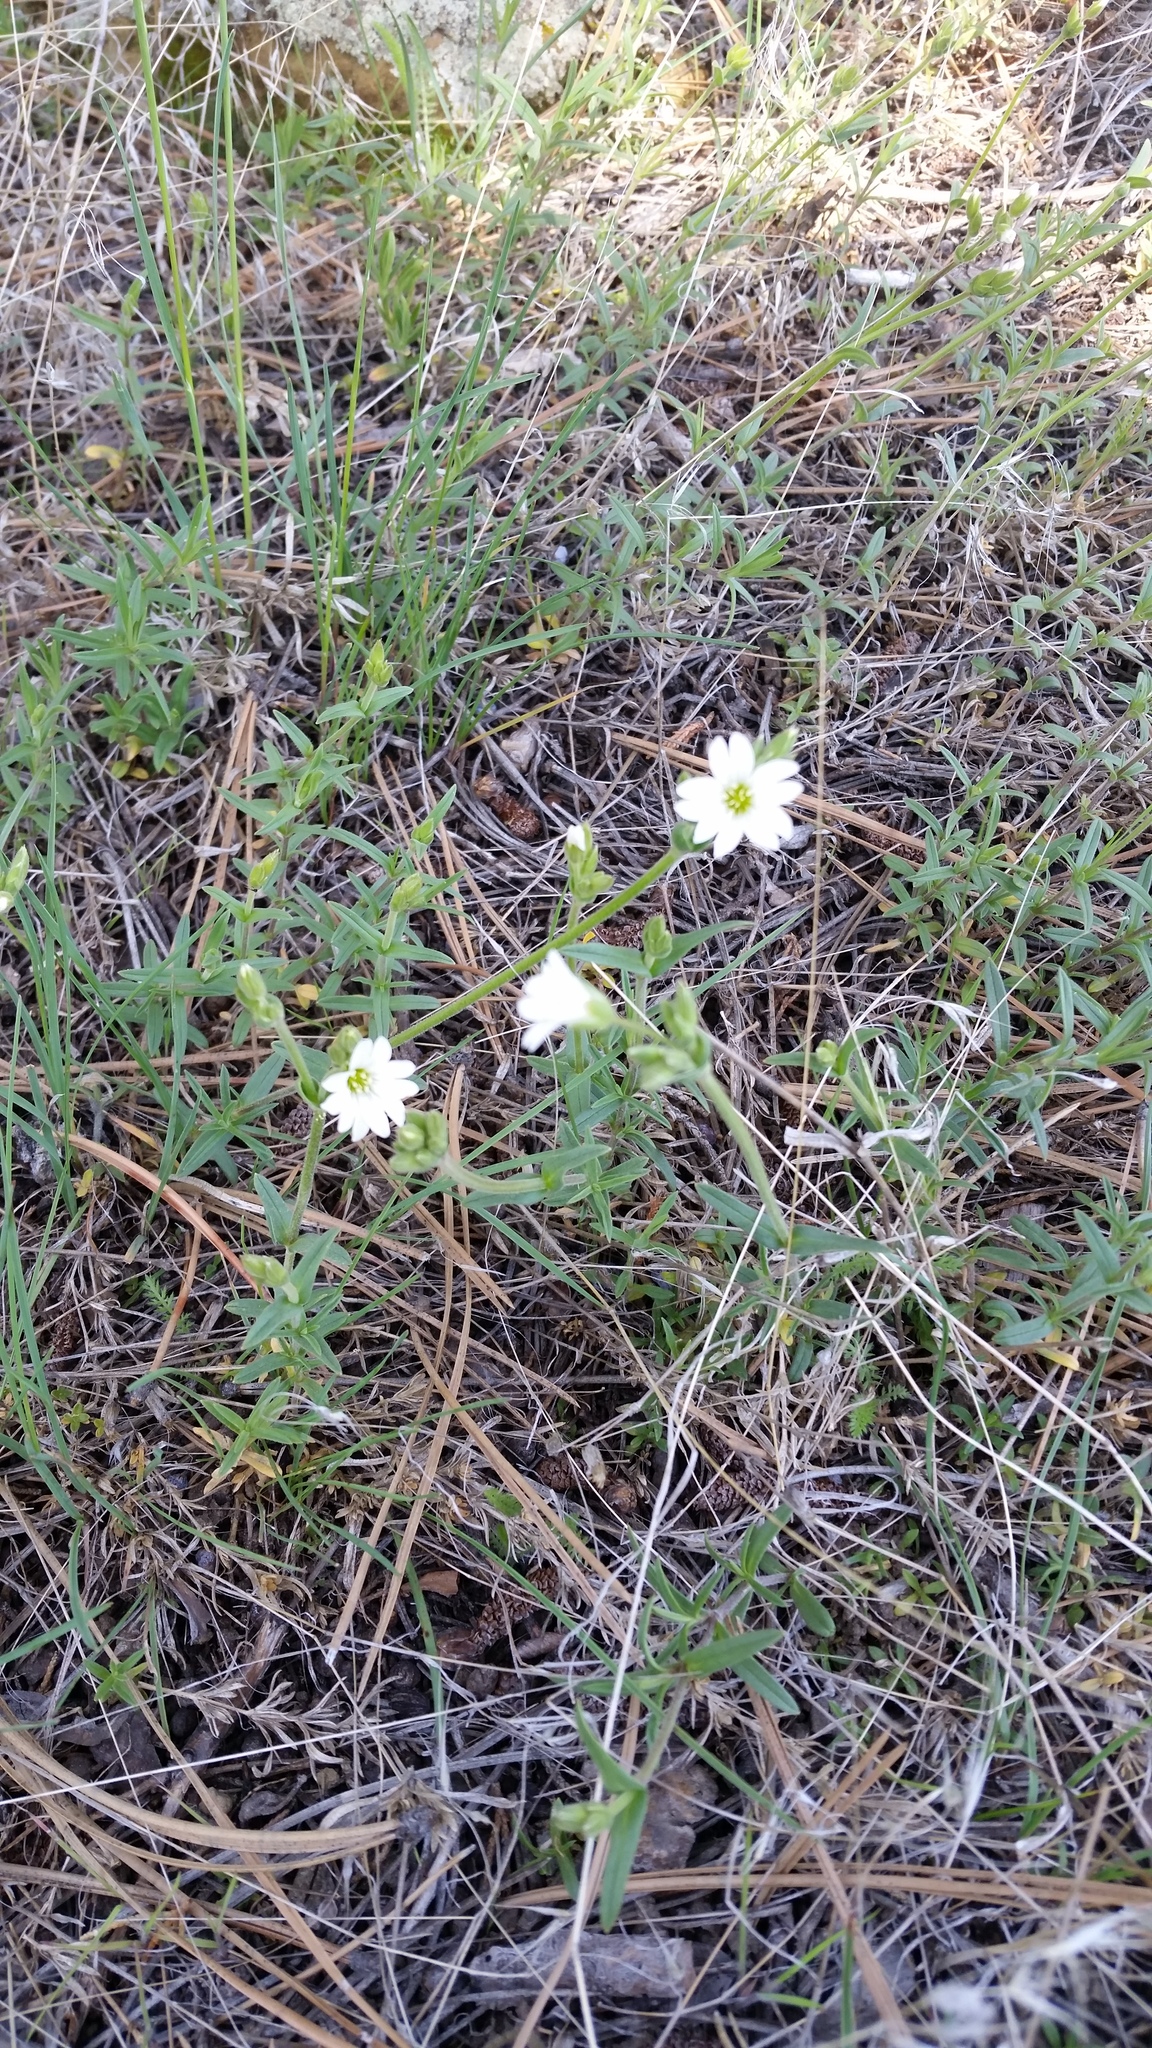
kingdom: Plantae
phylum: Tracheophyta
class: Magnoliopsida
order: Caryophyllales
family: Caryophyllaceae
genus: Cerastium
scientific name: Cerastium arvense
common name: Field mouse-ear
